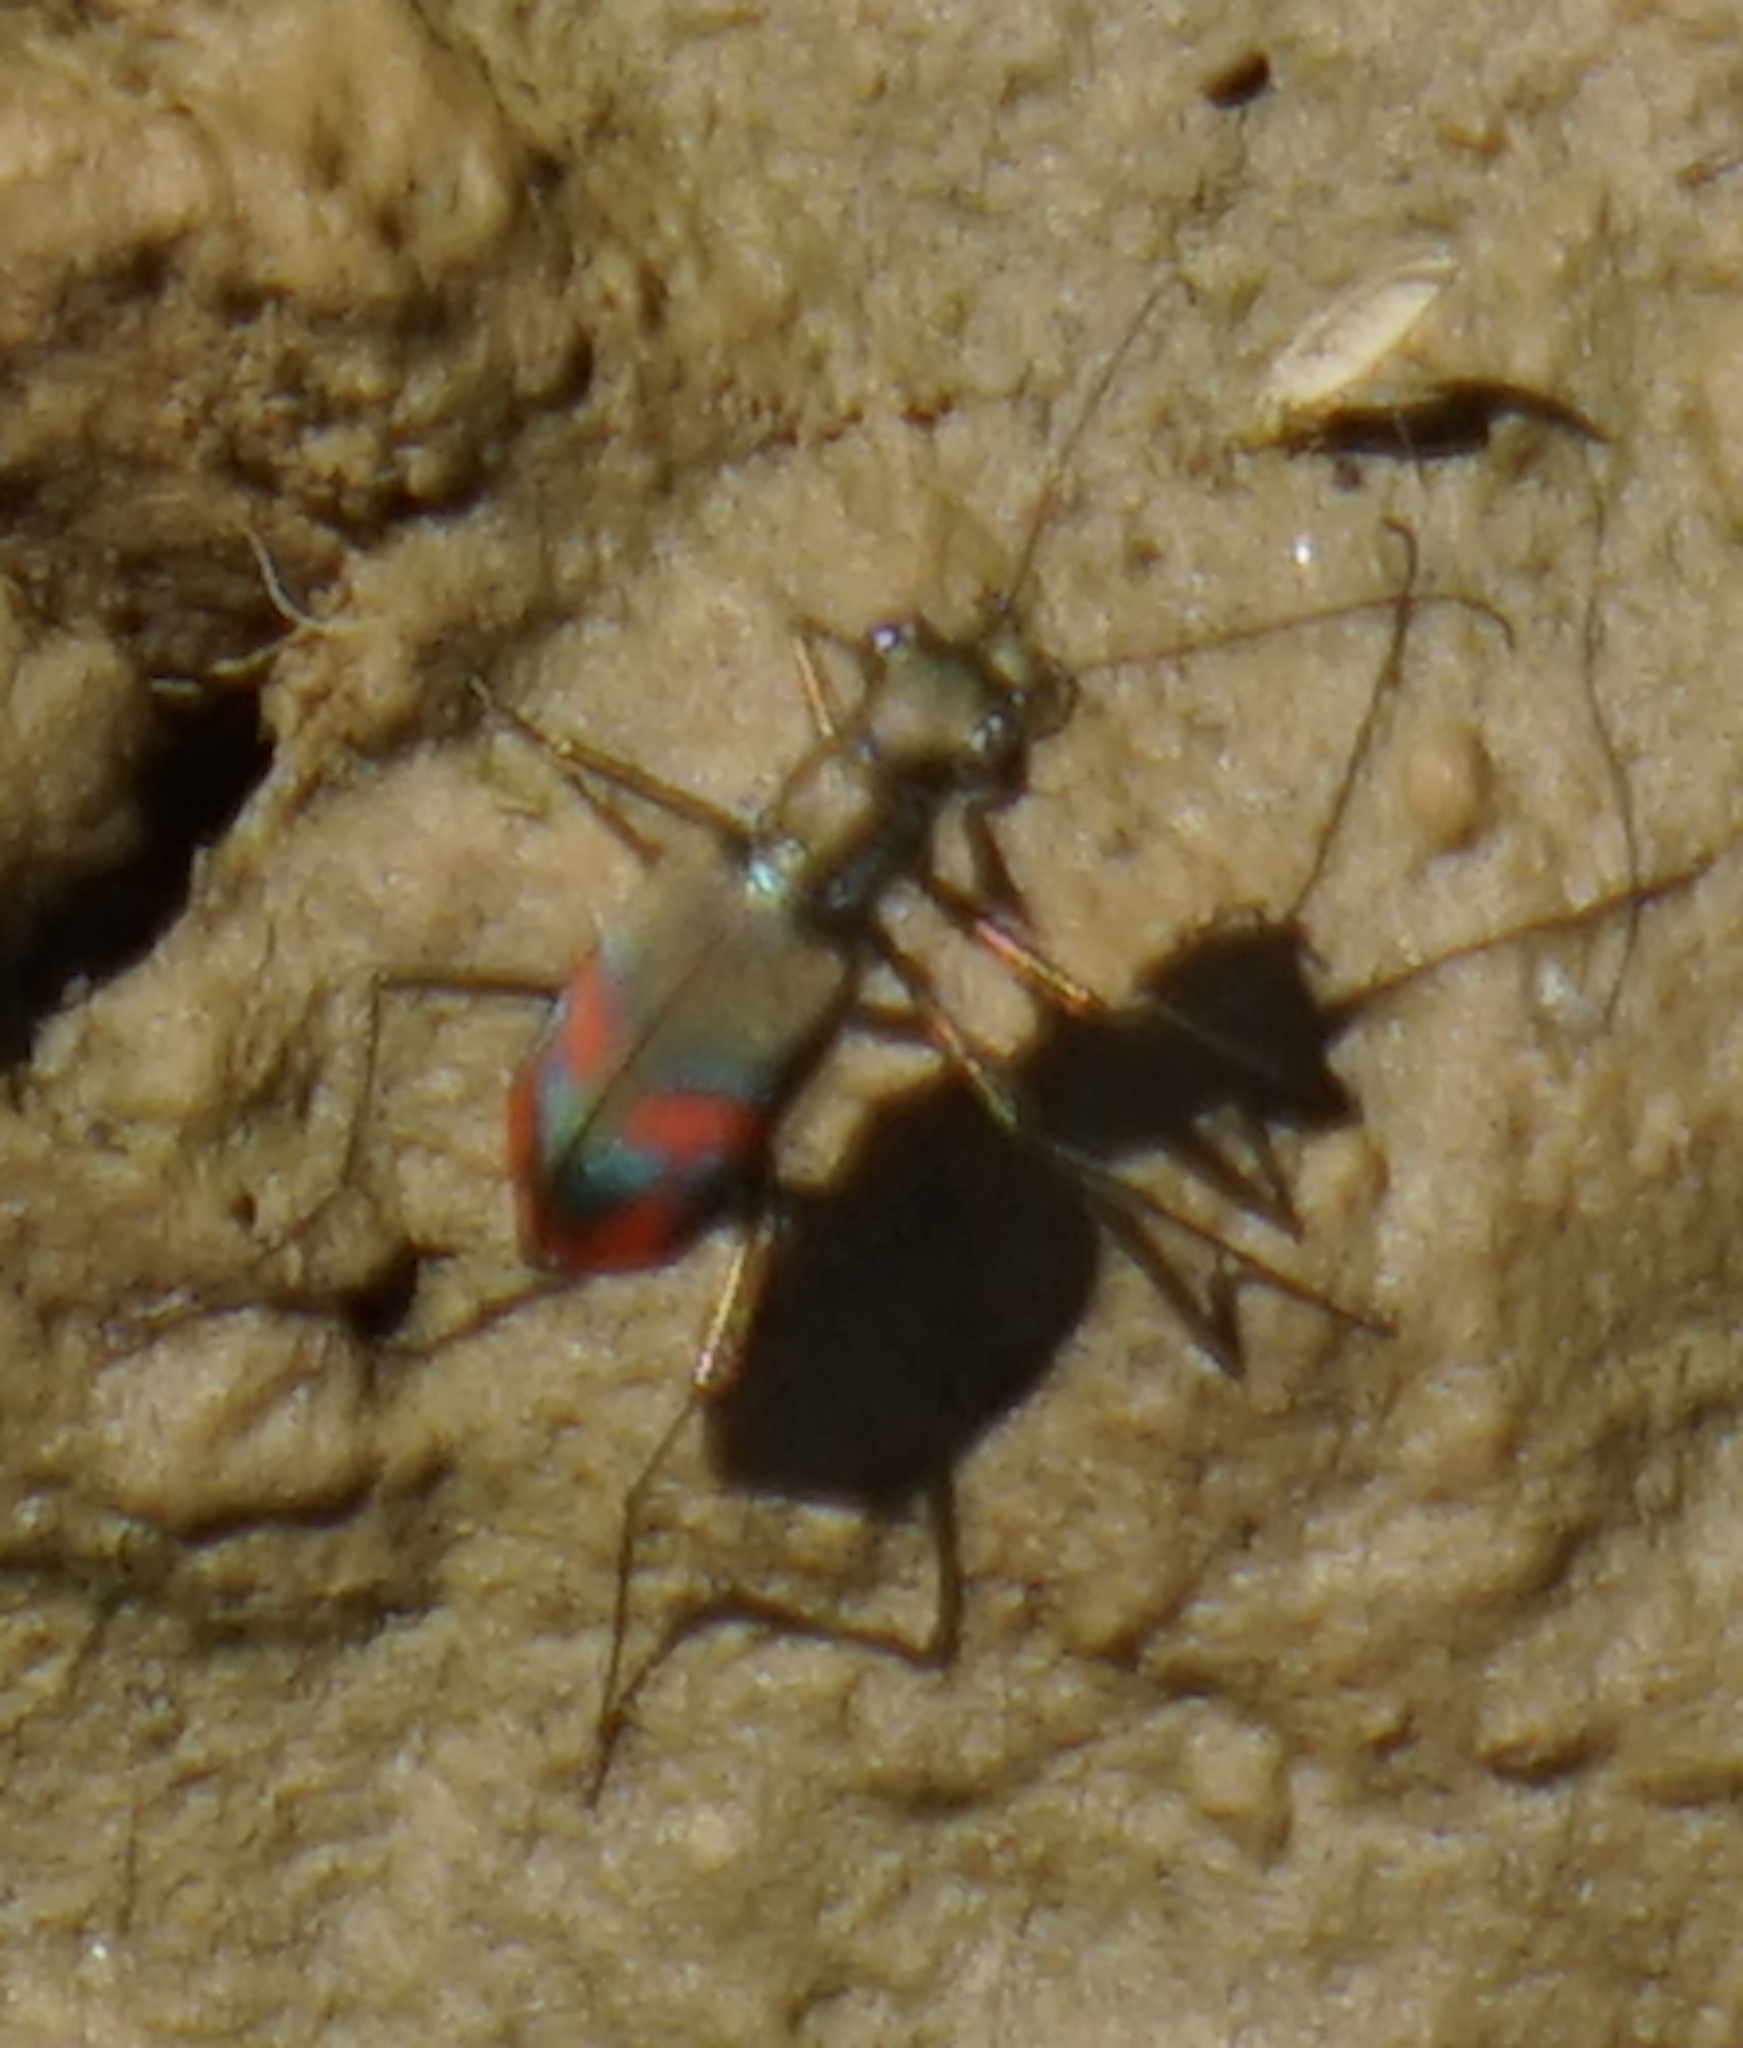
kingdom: Animalia
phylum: Arthropoda
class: Insecta
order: Coleoptera
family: Carabidae
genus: Cicindela
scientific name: Cicindela crespignyi
